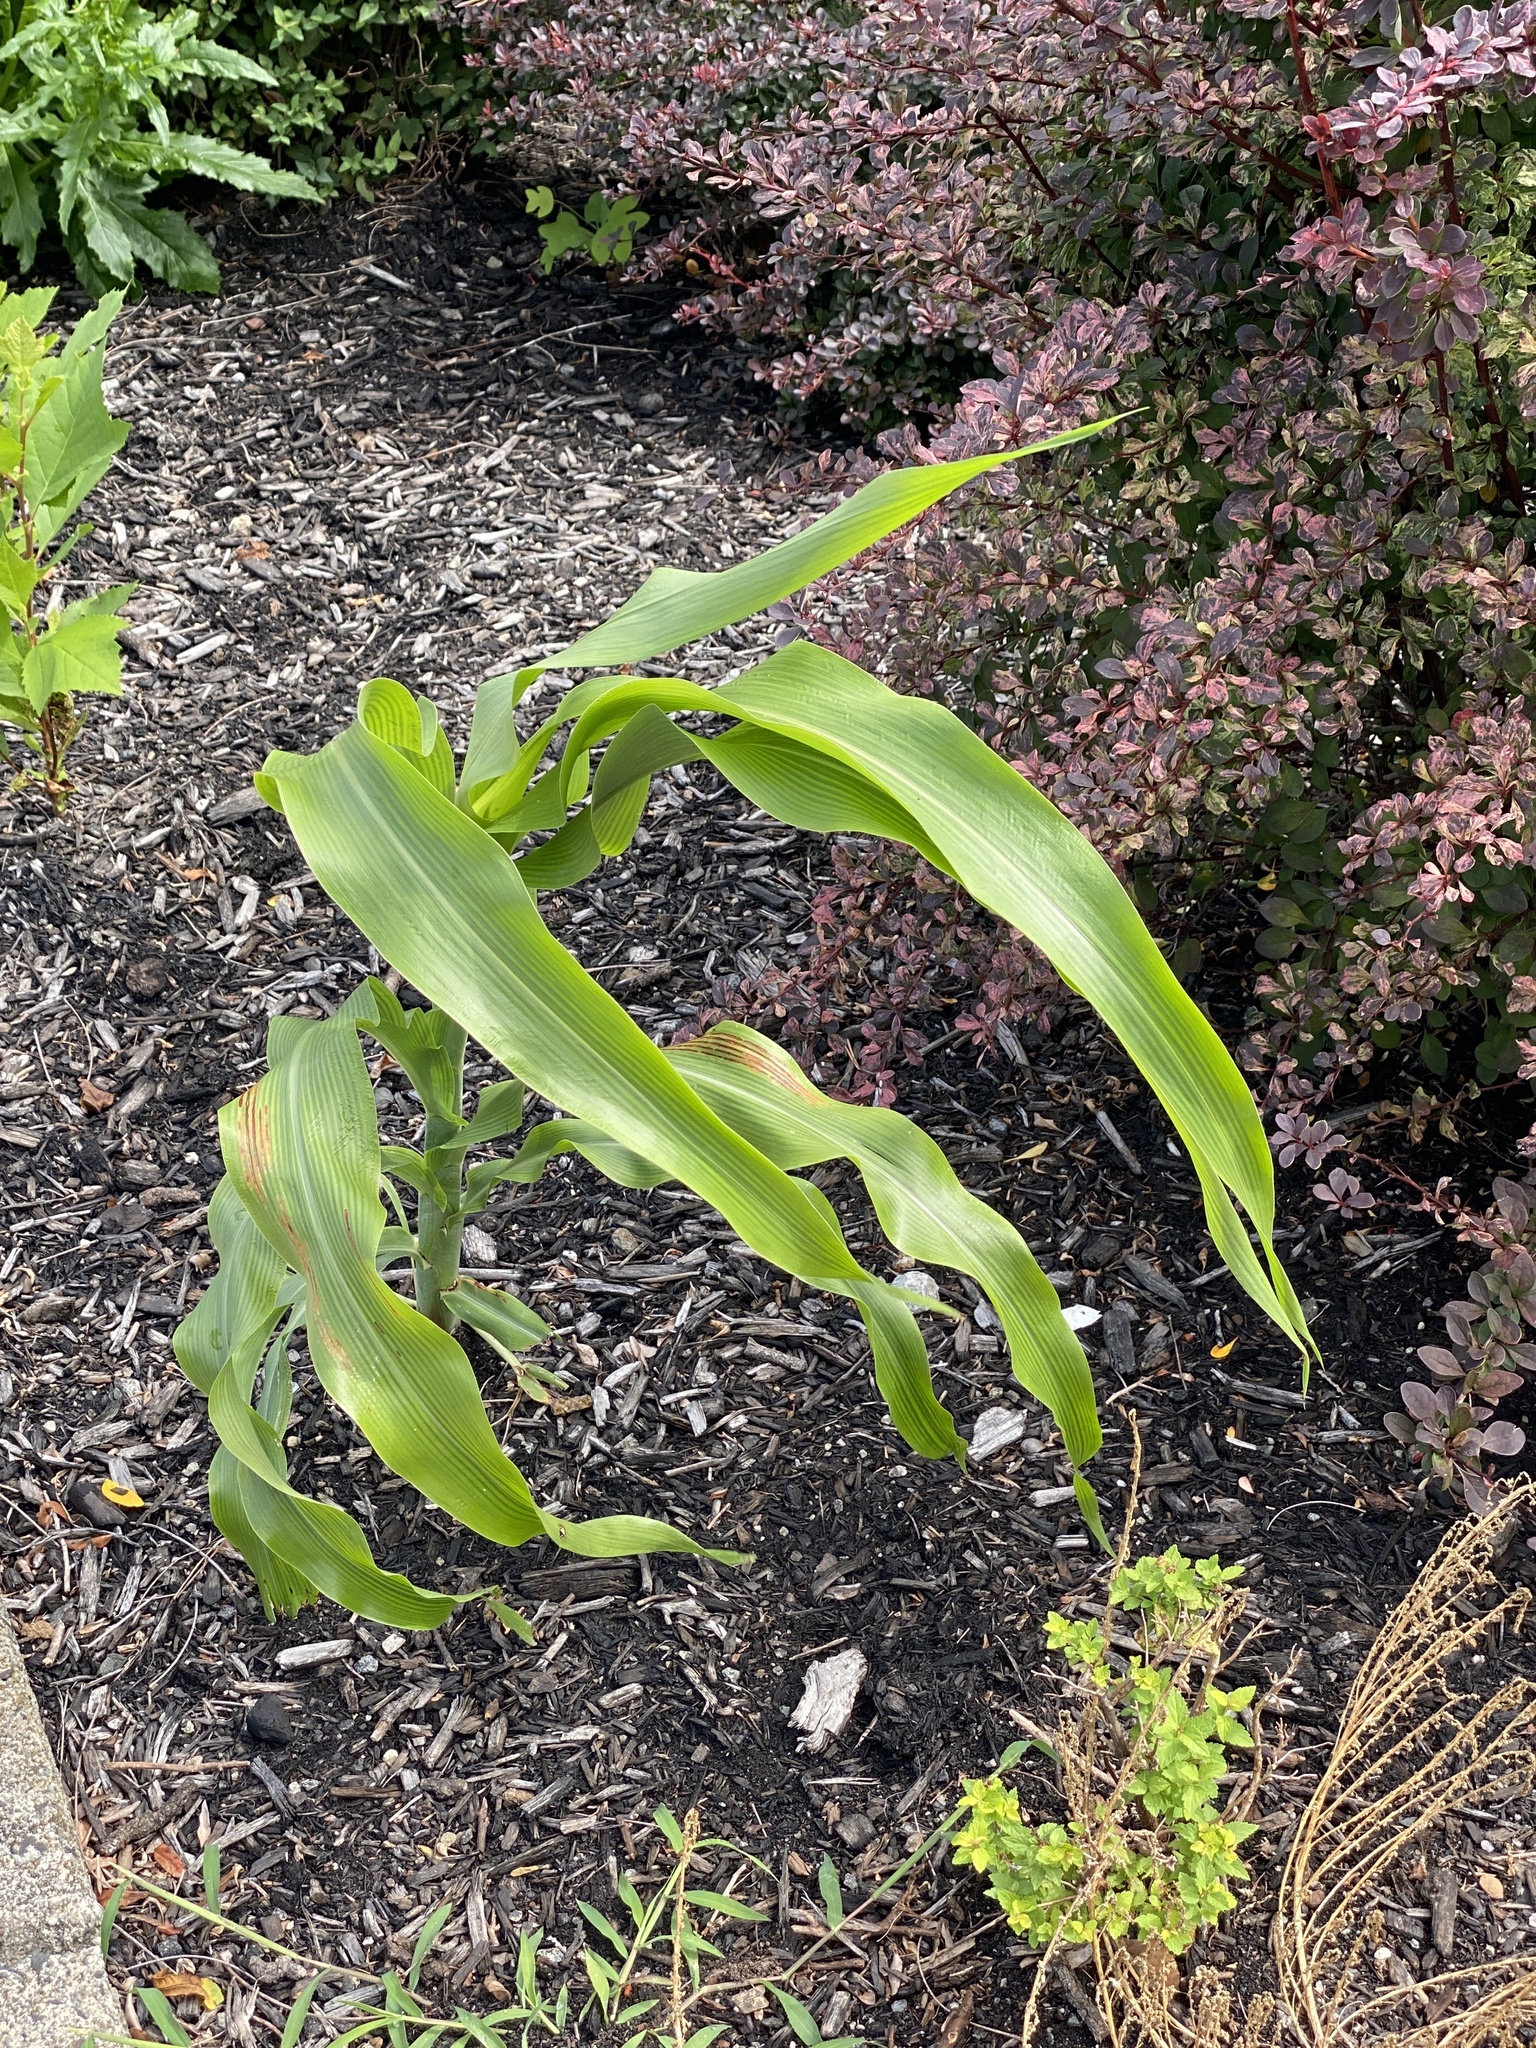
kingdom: Plantae
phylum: Tracheophyta
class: Liliopsida
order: Poales
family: Poaceae
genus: Zea
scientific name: Zea mays
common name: Maize
